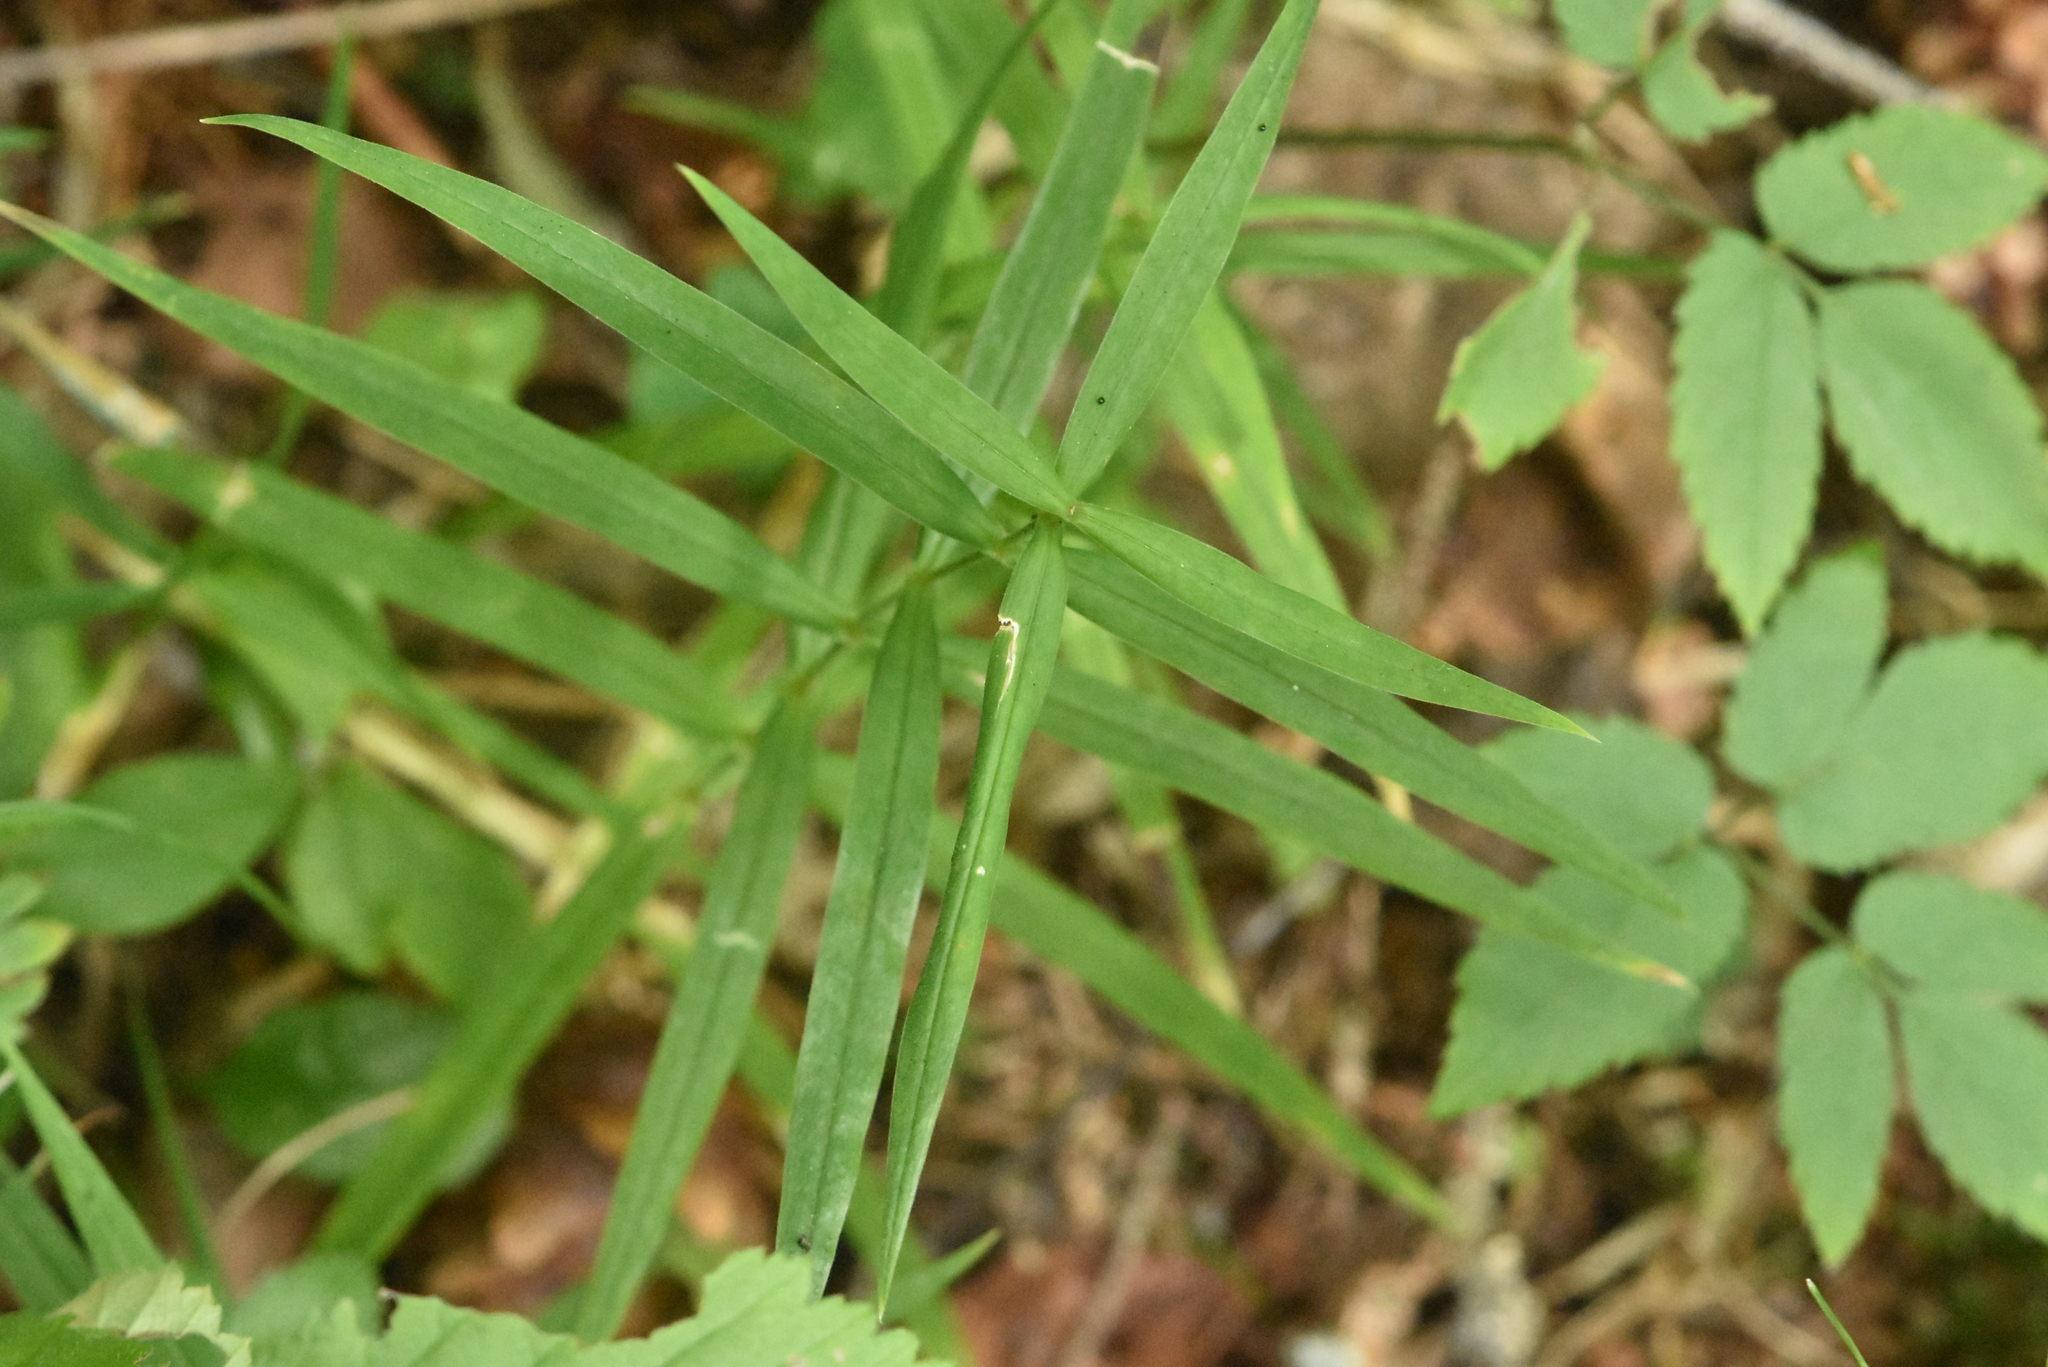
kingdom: Plantae
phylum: Tracheophyta
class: Magnoliopsida
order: Caryophyllales
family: Caryophyllaceae
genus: Rabelera
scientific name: Rabelera holostea
